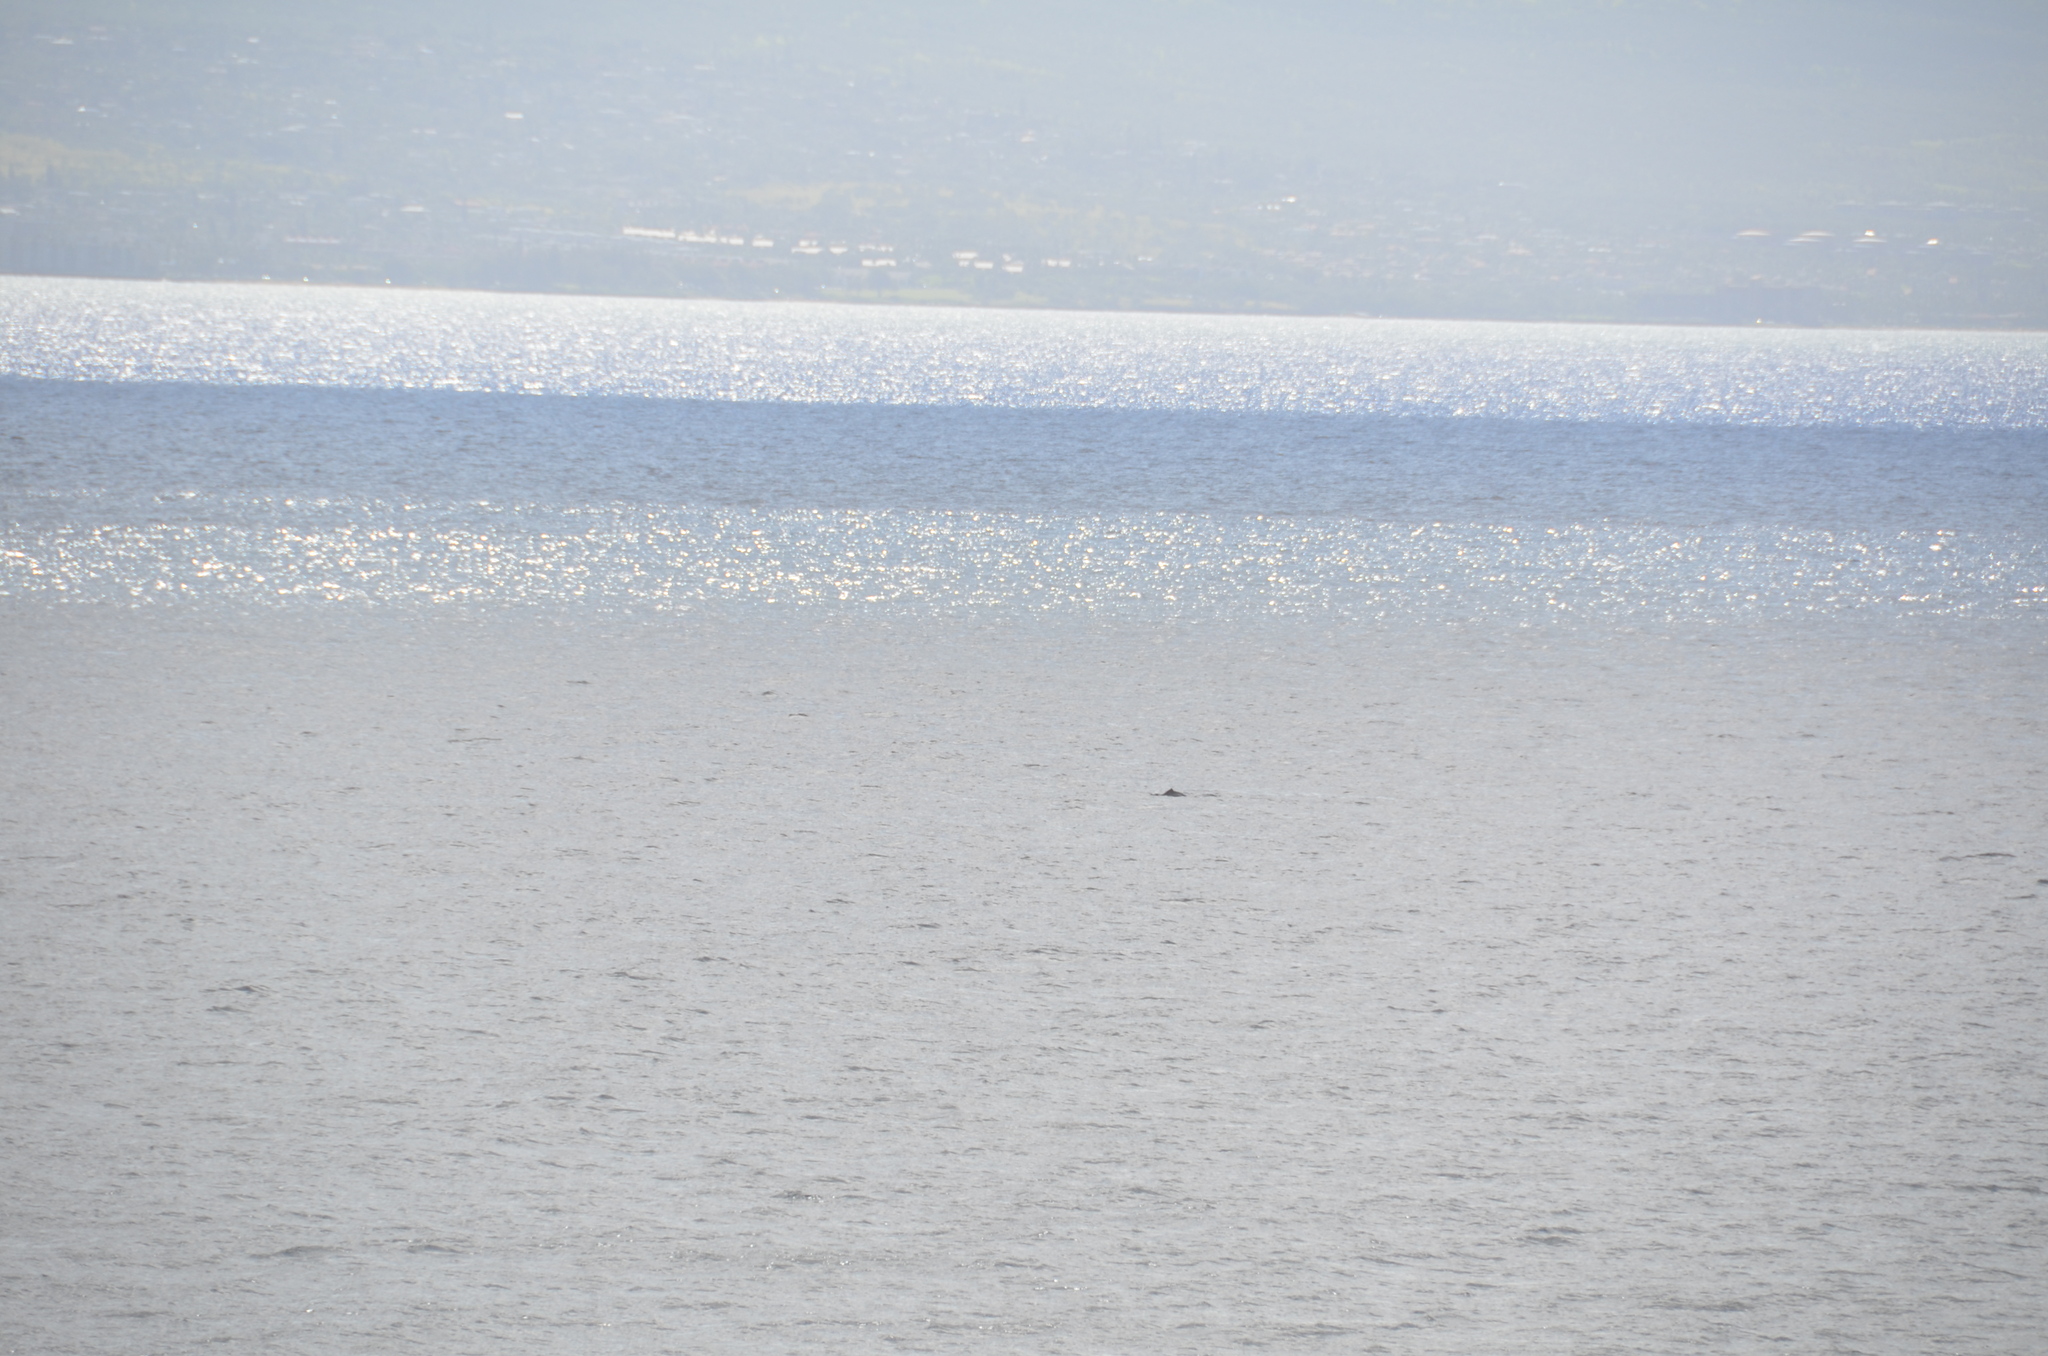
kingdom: Animalia
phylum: Chordata
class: Mammalia
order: Cetacea
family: Balaenopteridae
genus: Megaptera
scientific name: Megaptera novaeangliae
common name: Humpback whale
